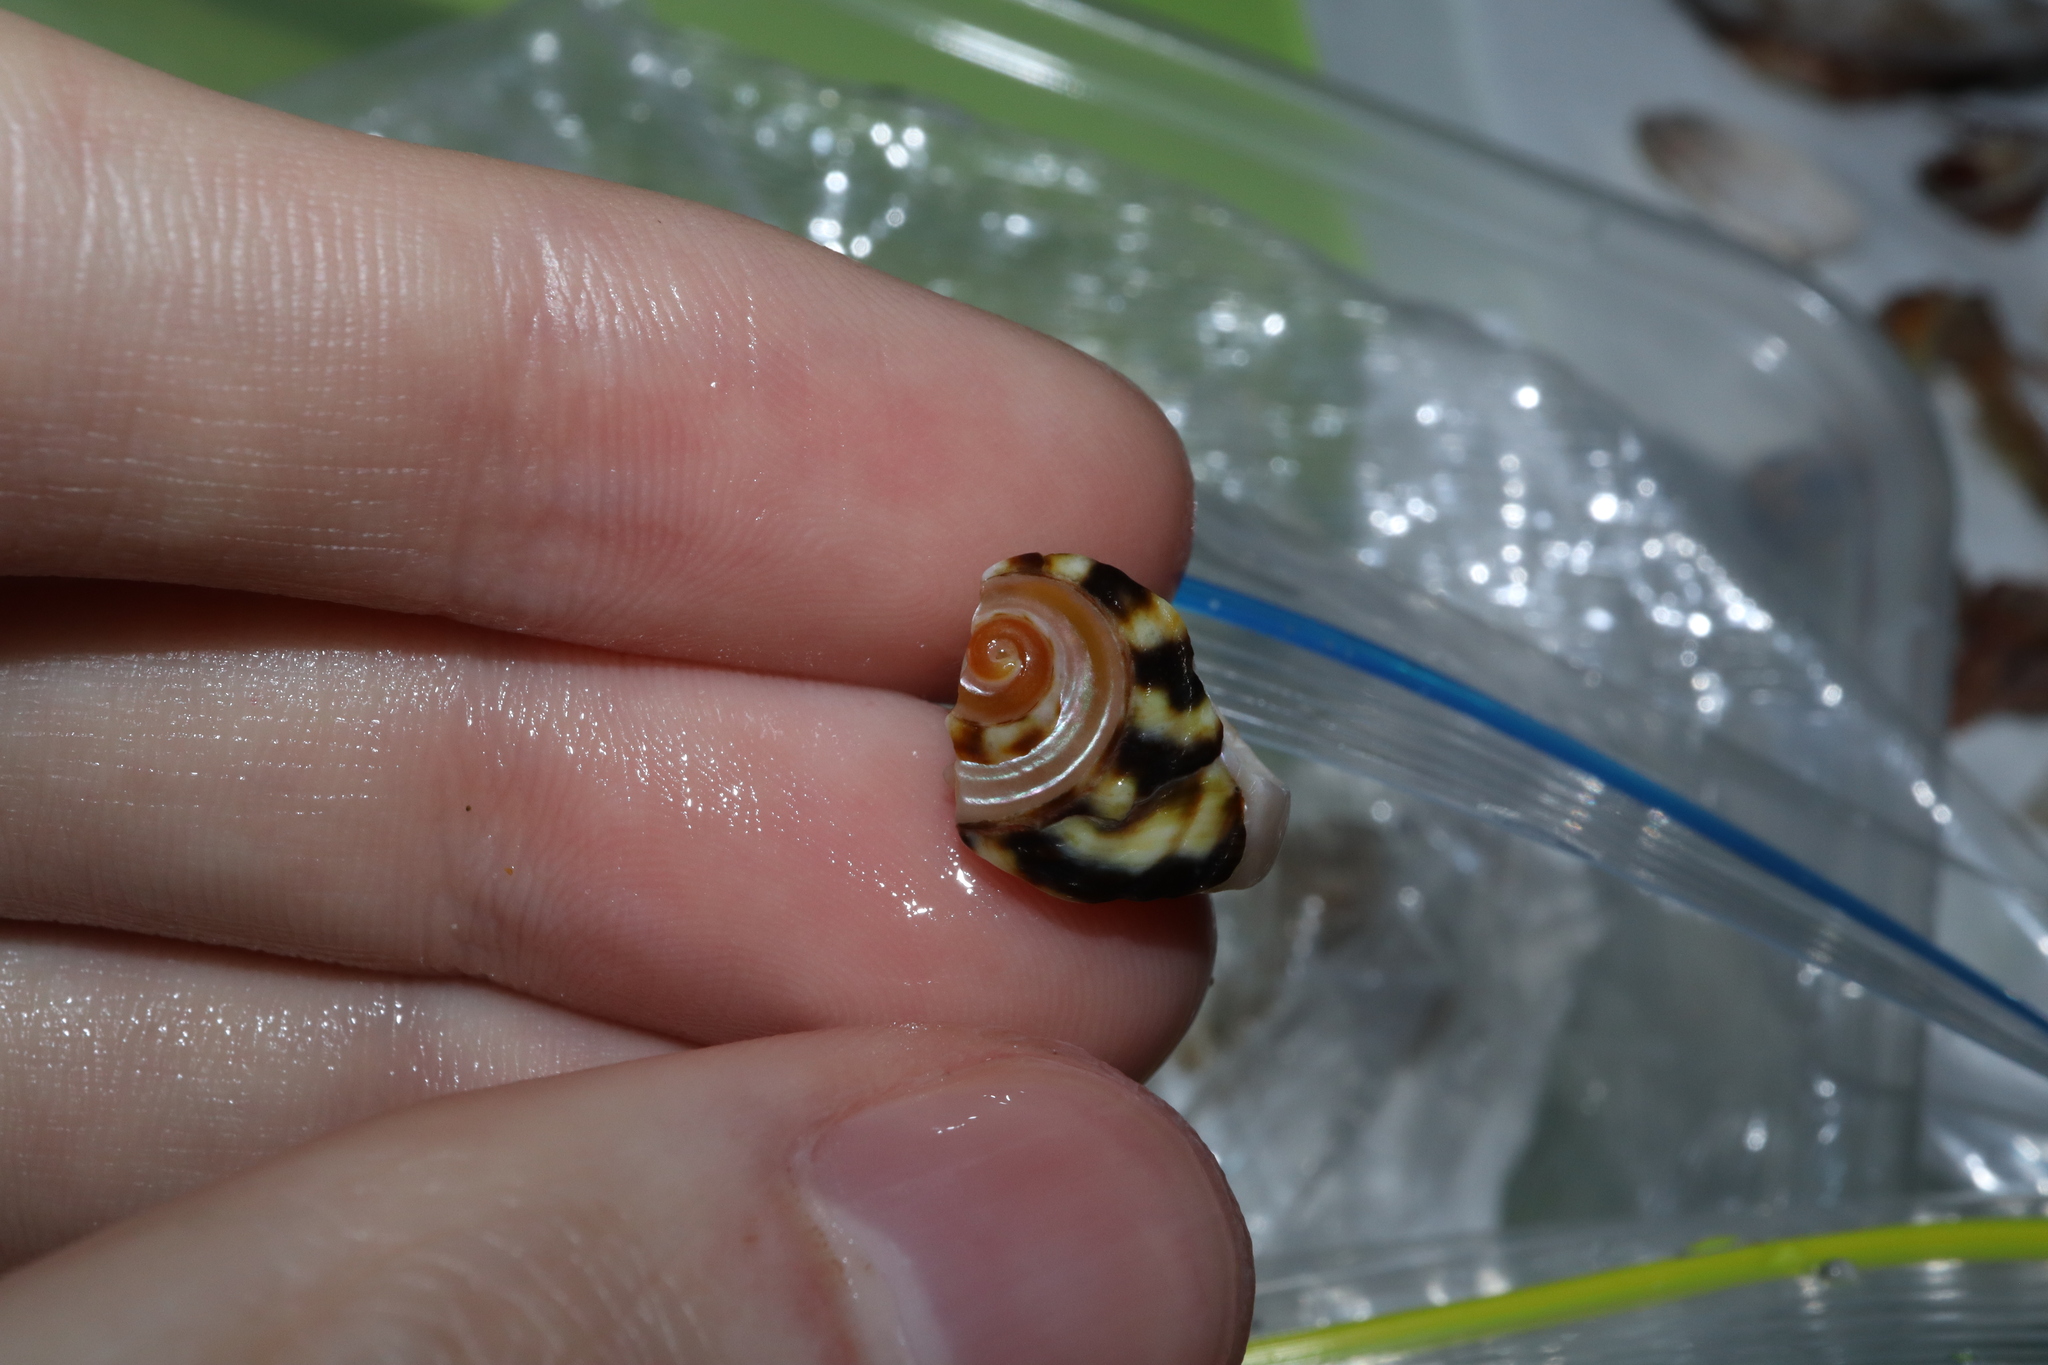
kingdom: Animalia
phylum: Mollusca
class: Gastropoda
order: Trochida
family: Turbinidae
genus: Lunella
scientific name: Lunella undulata
